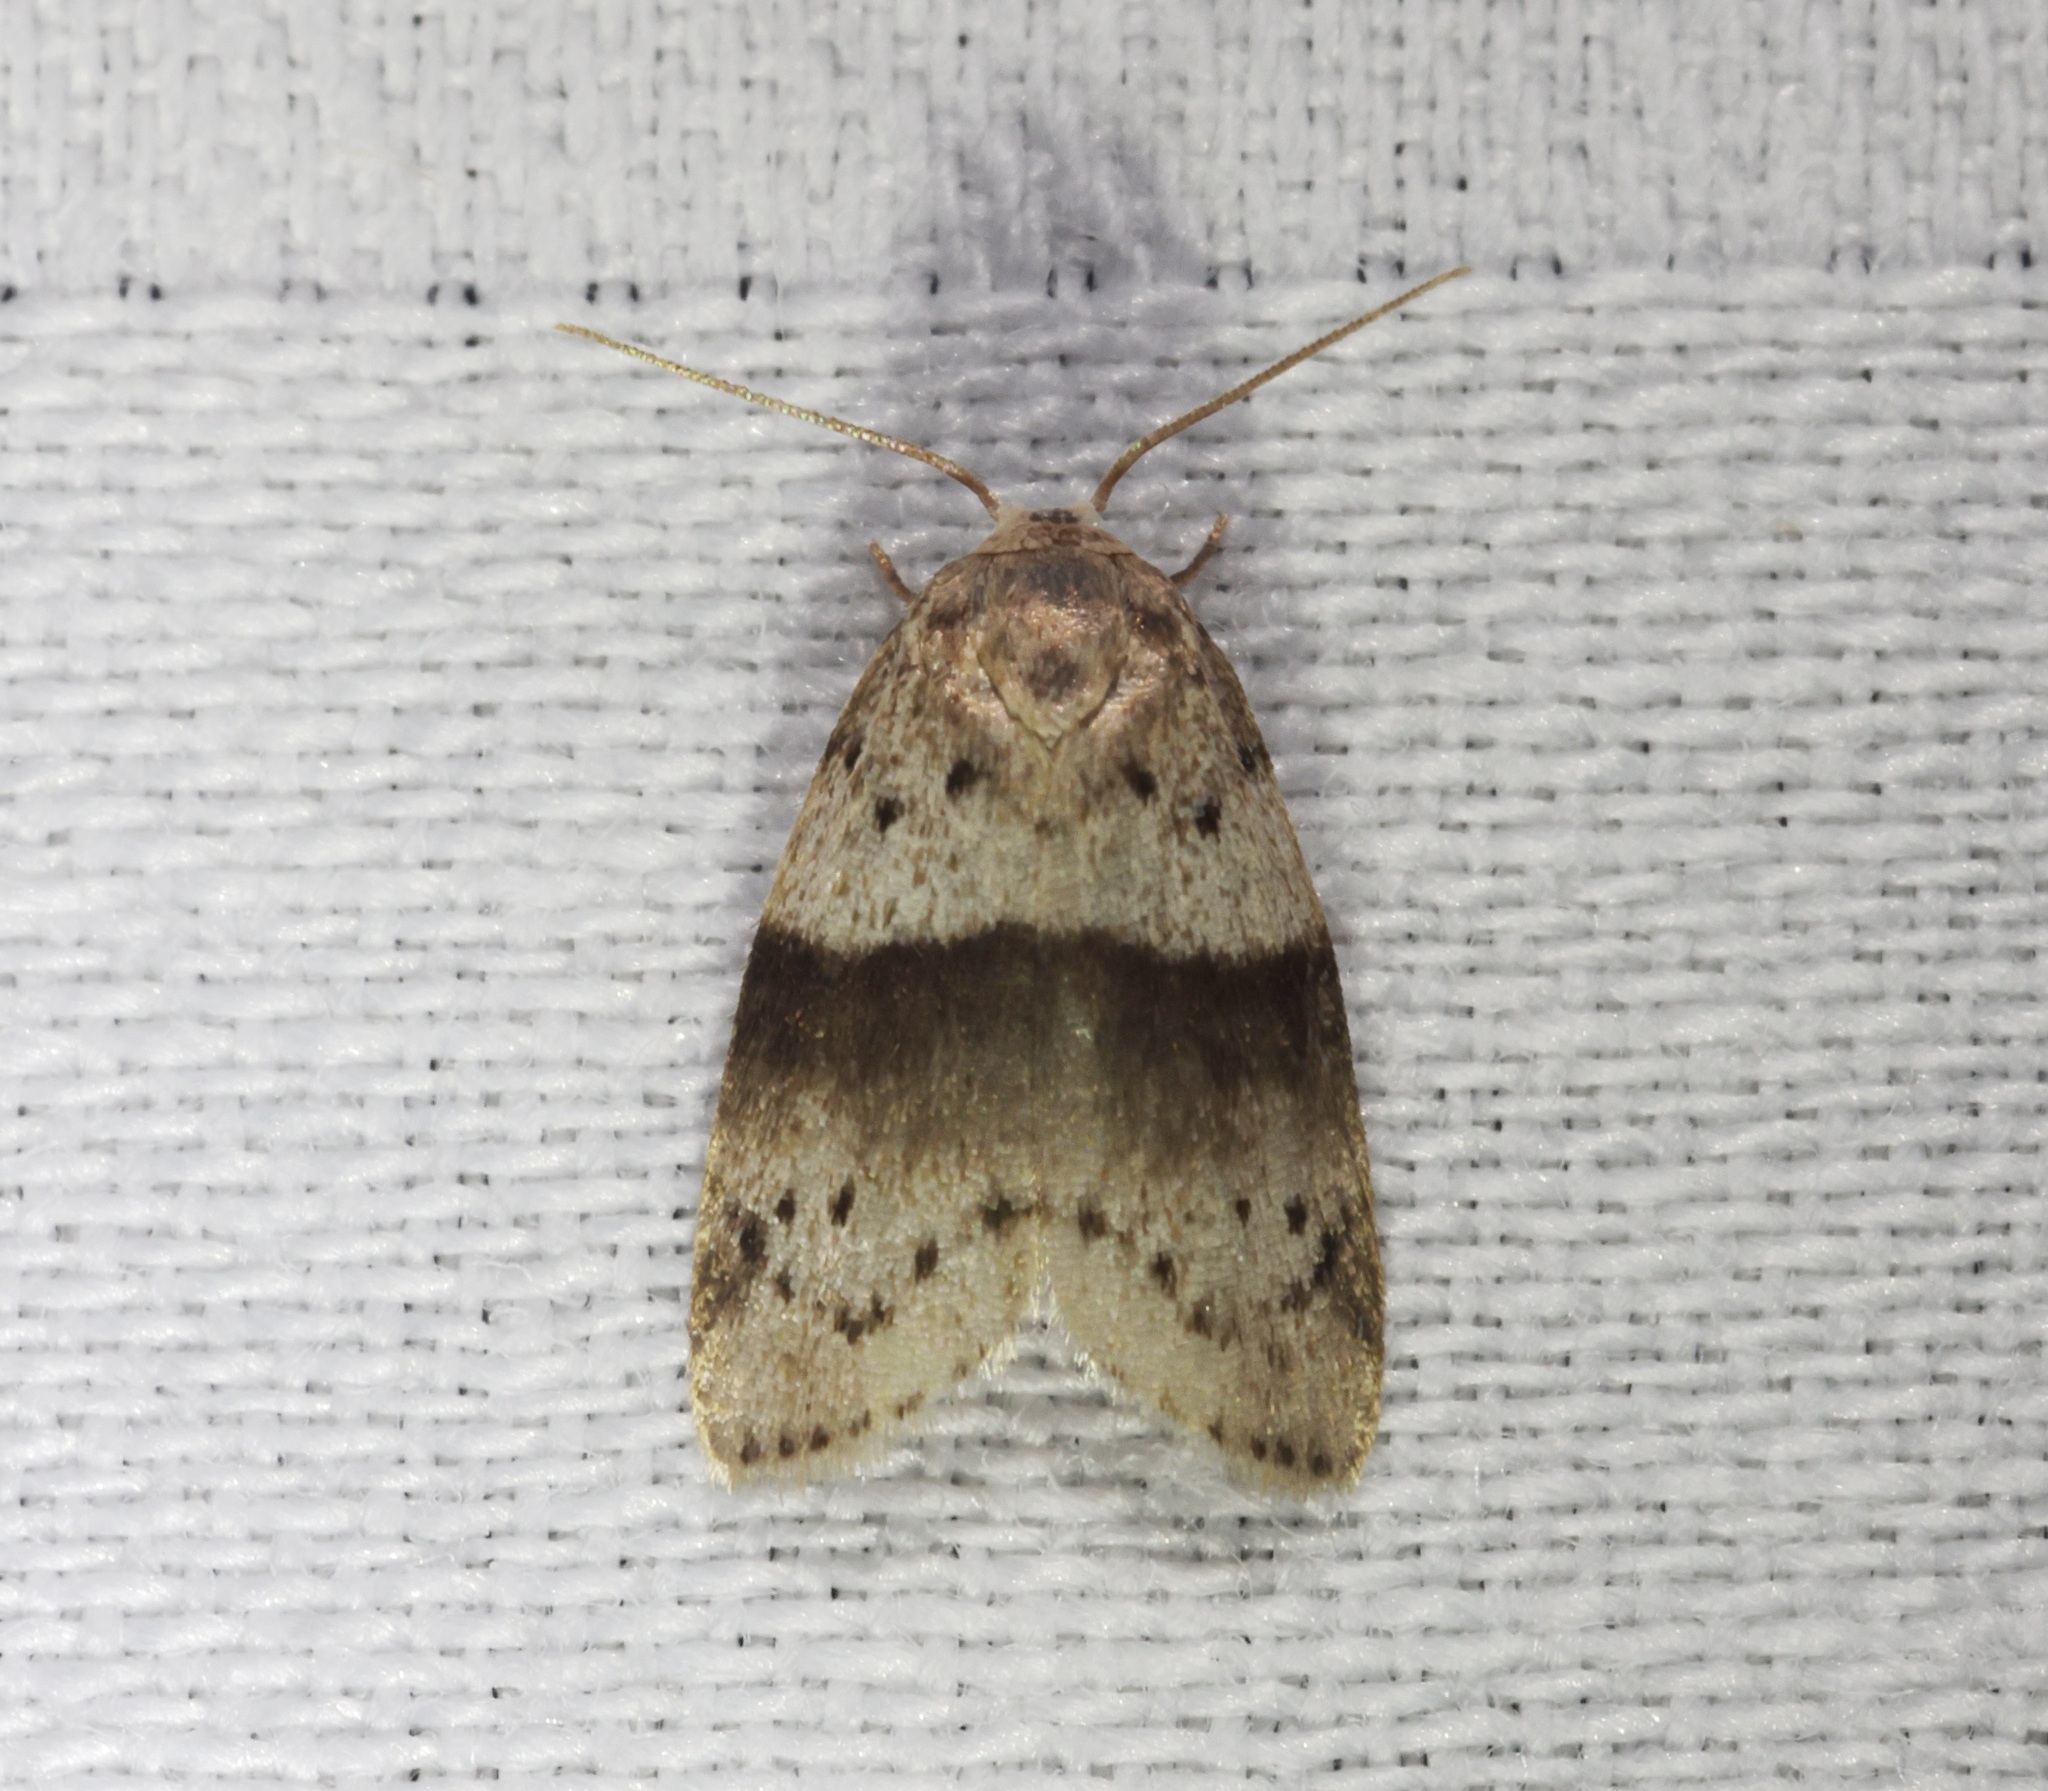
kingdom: Animalia
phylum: Arthropoda
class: Insecta
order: Lepidoptera
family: Erebidae
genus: Stictane
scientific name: Stictane rectilinea
